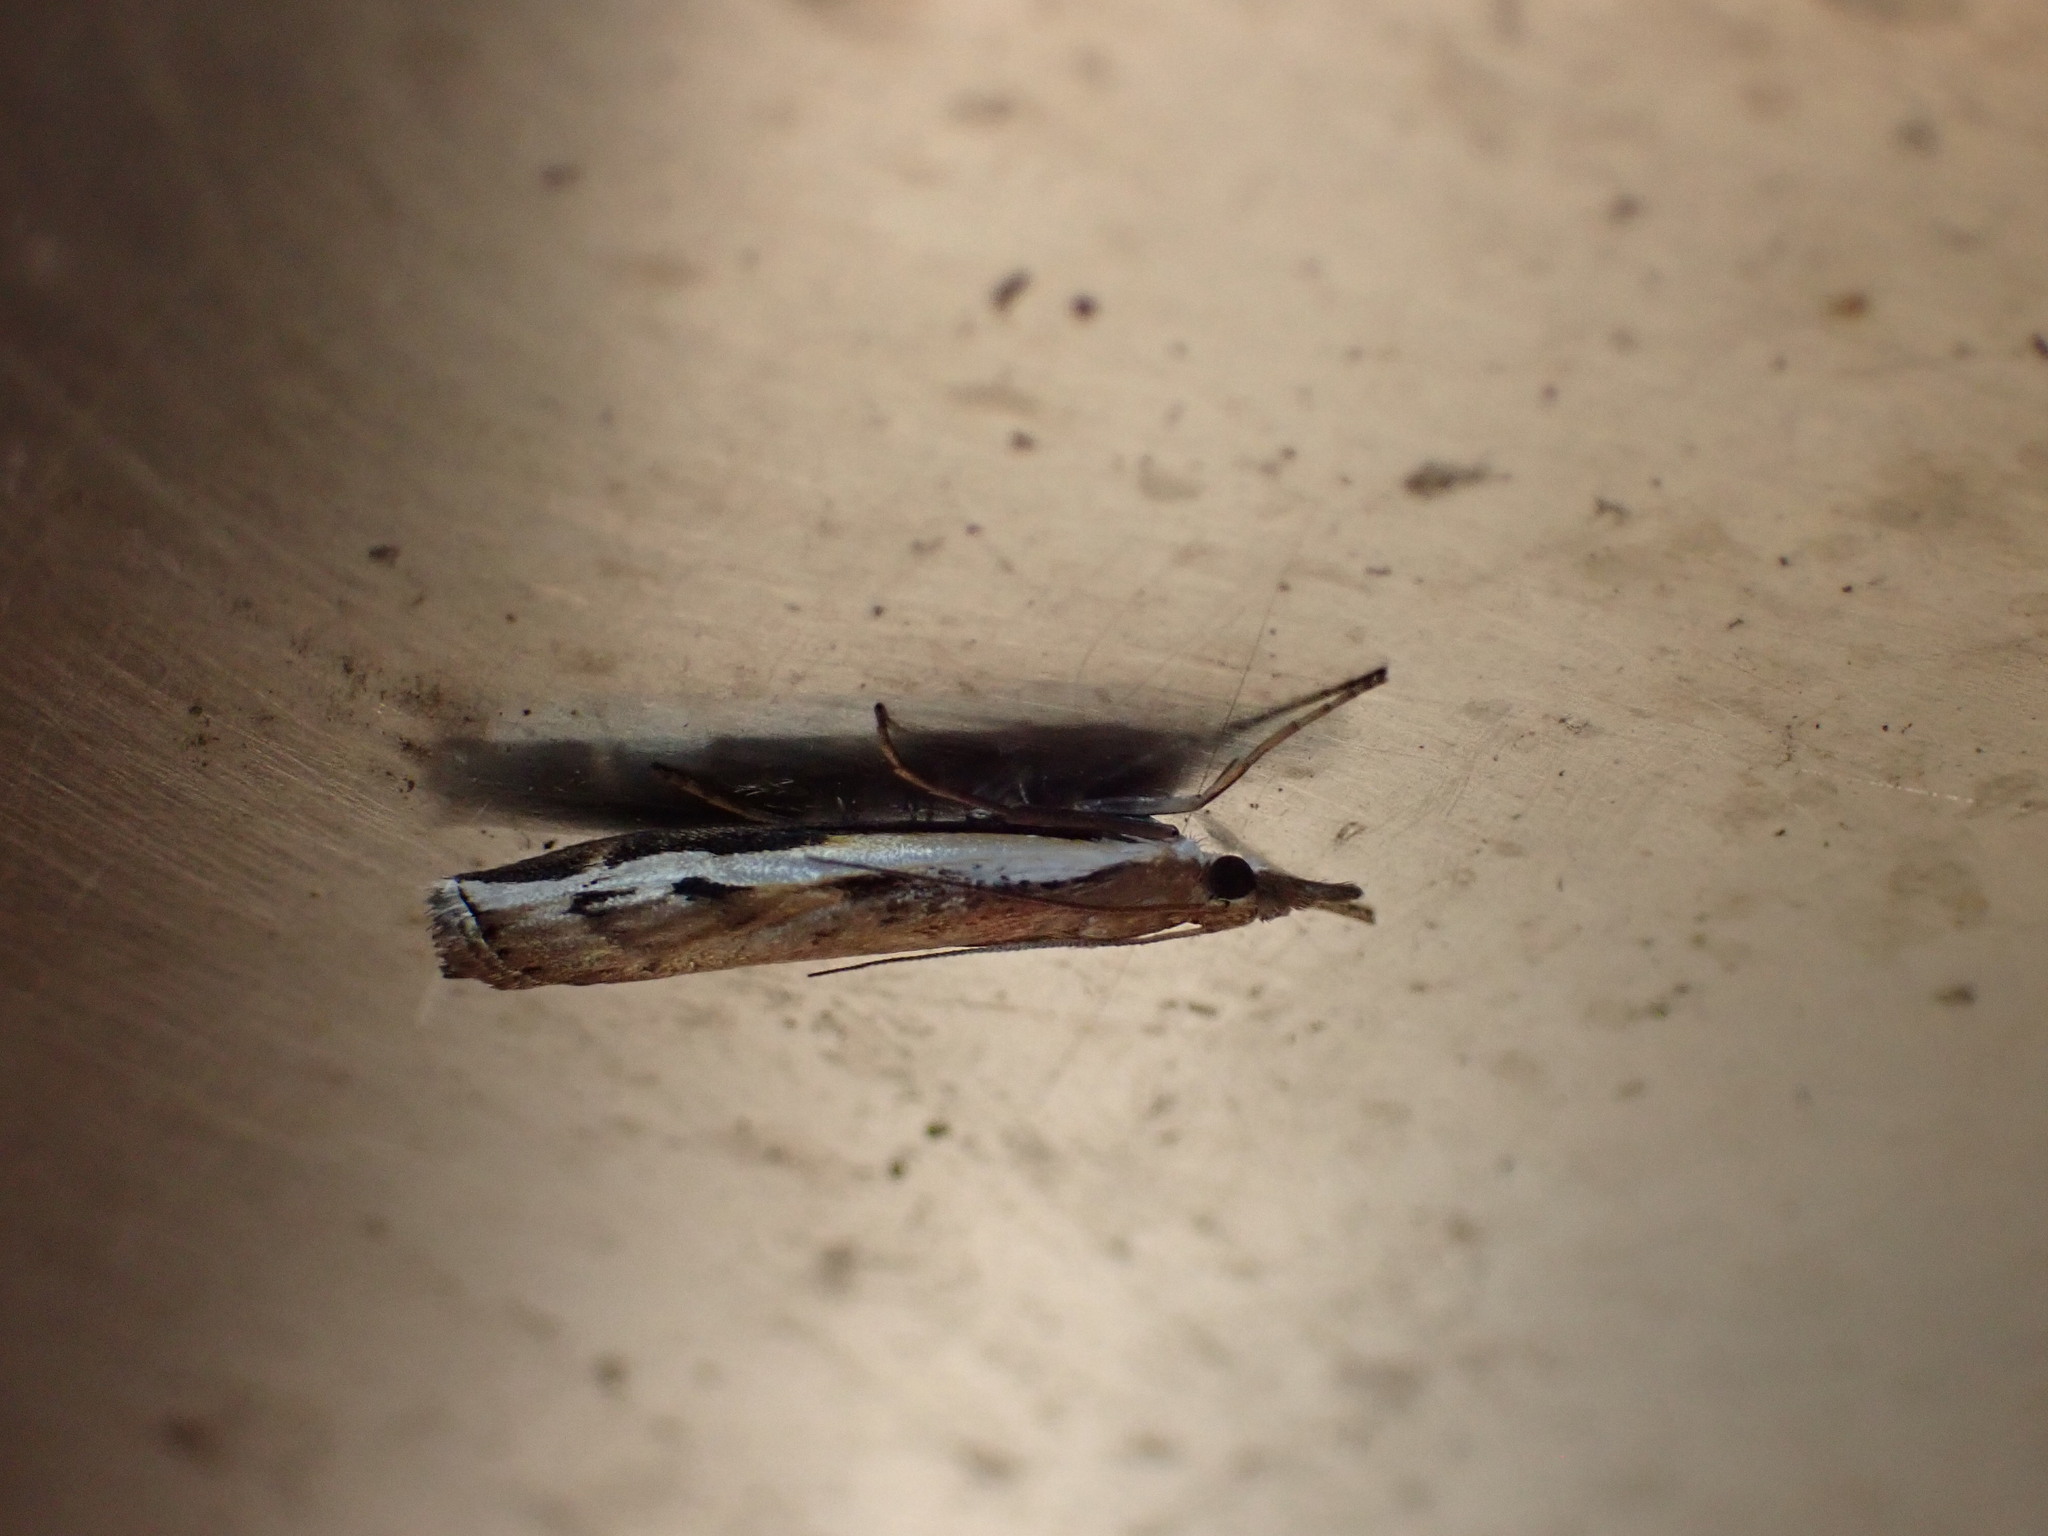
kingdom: Animalia
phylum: Arthropoda
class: Insecta
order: Lepidoptera
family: Crambidae
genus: Orocrambus
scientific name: Orocrambus flexuosellus
